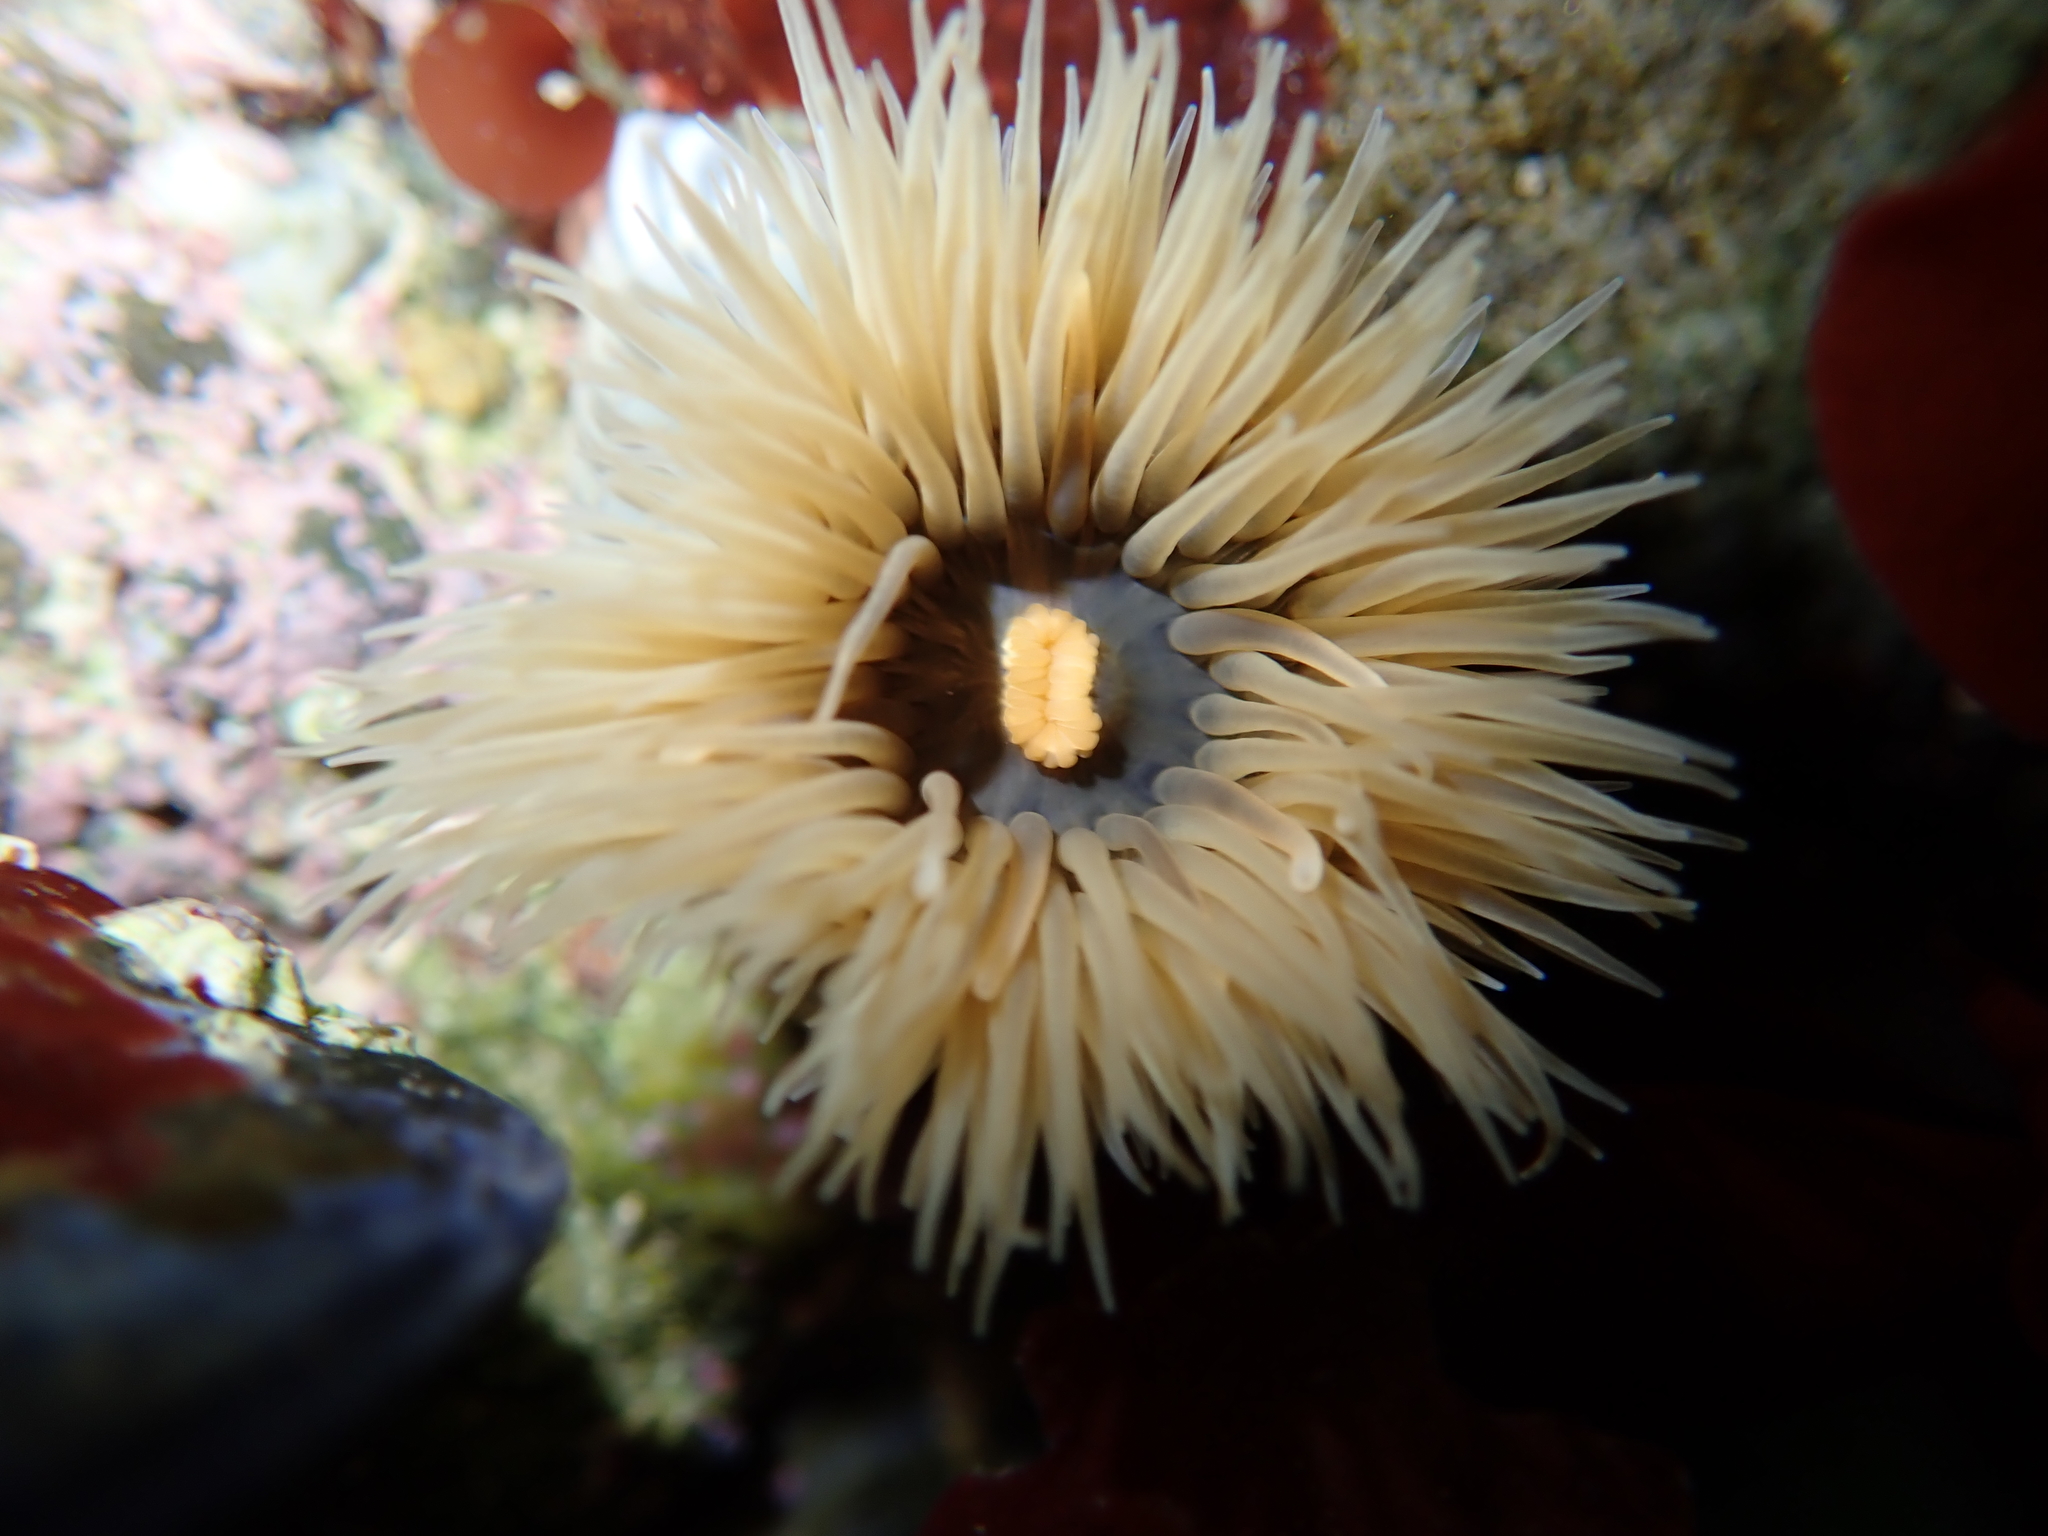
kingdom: Animalia
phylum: Cnidaria
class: Anthozoa
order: Actiniaria
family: Diadumenidae
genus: Diadumene
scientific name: Diadumene neozelanica
